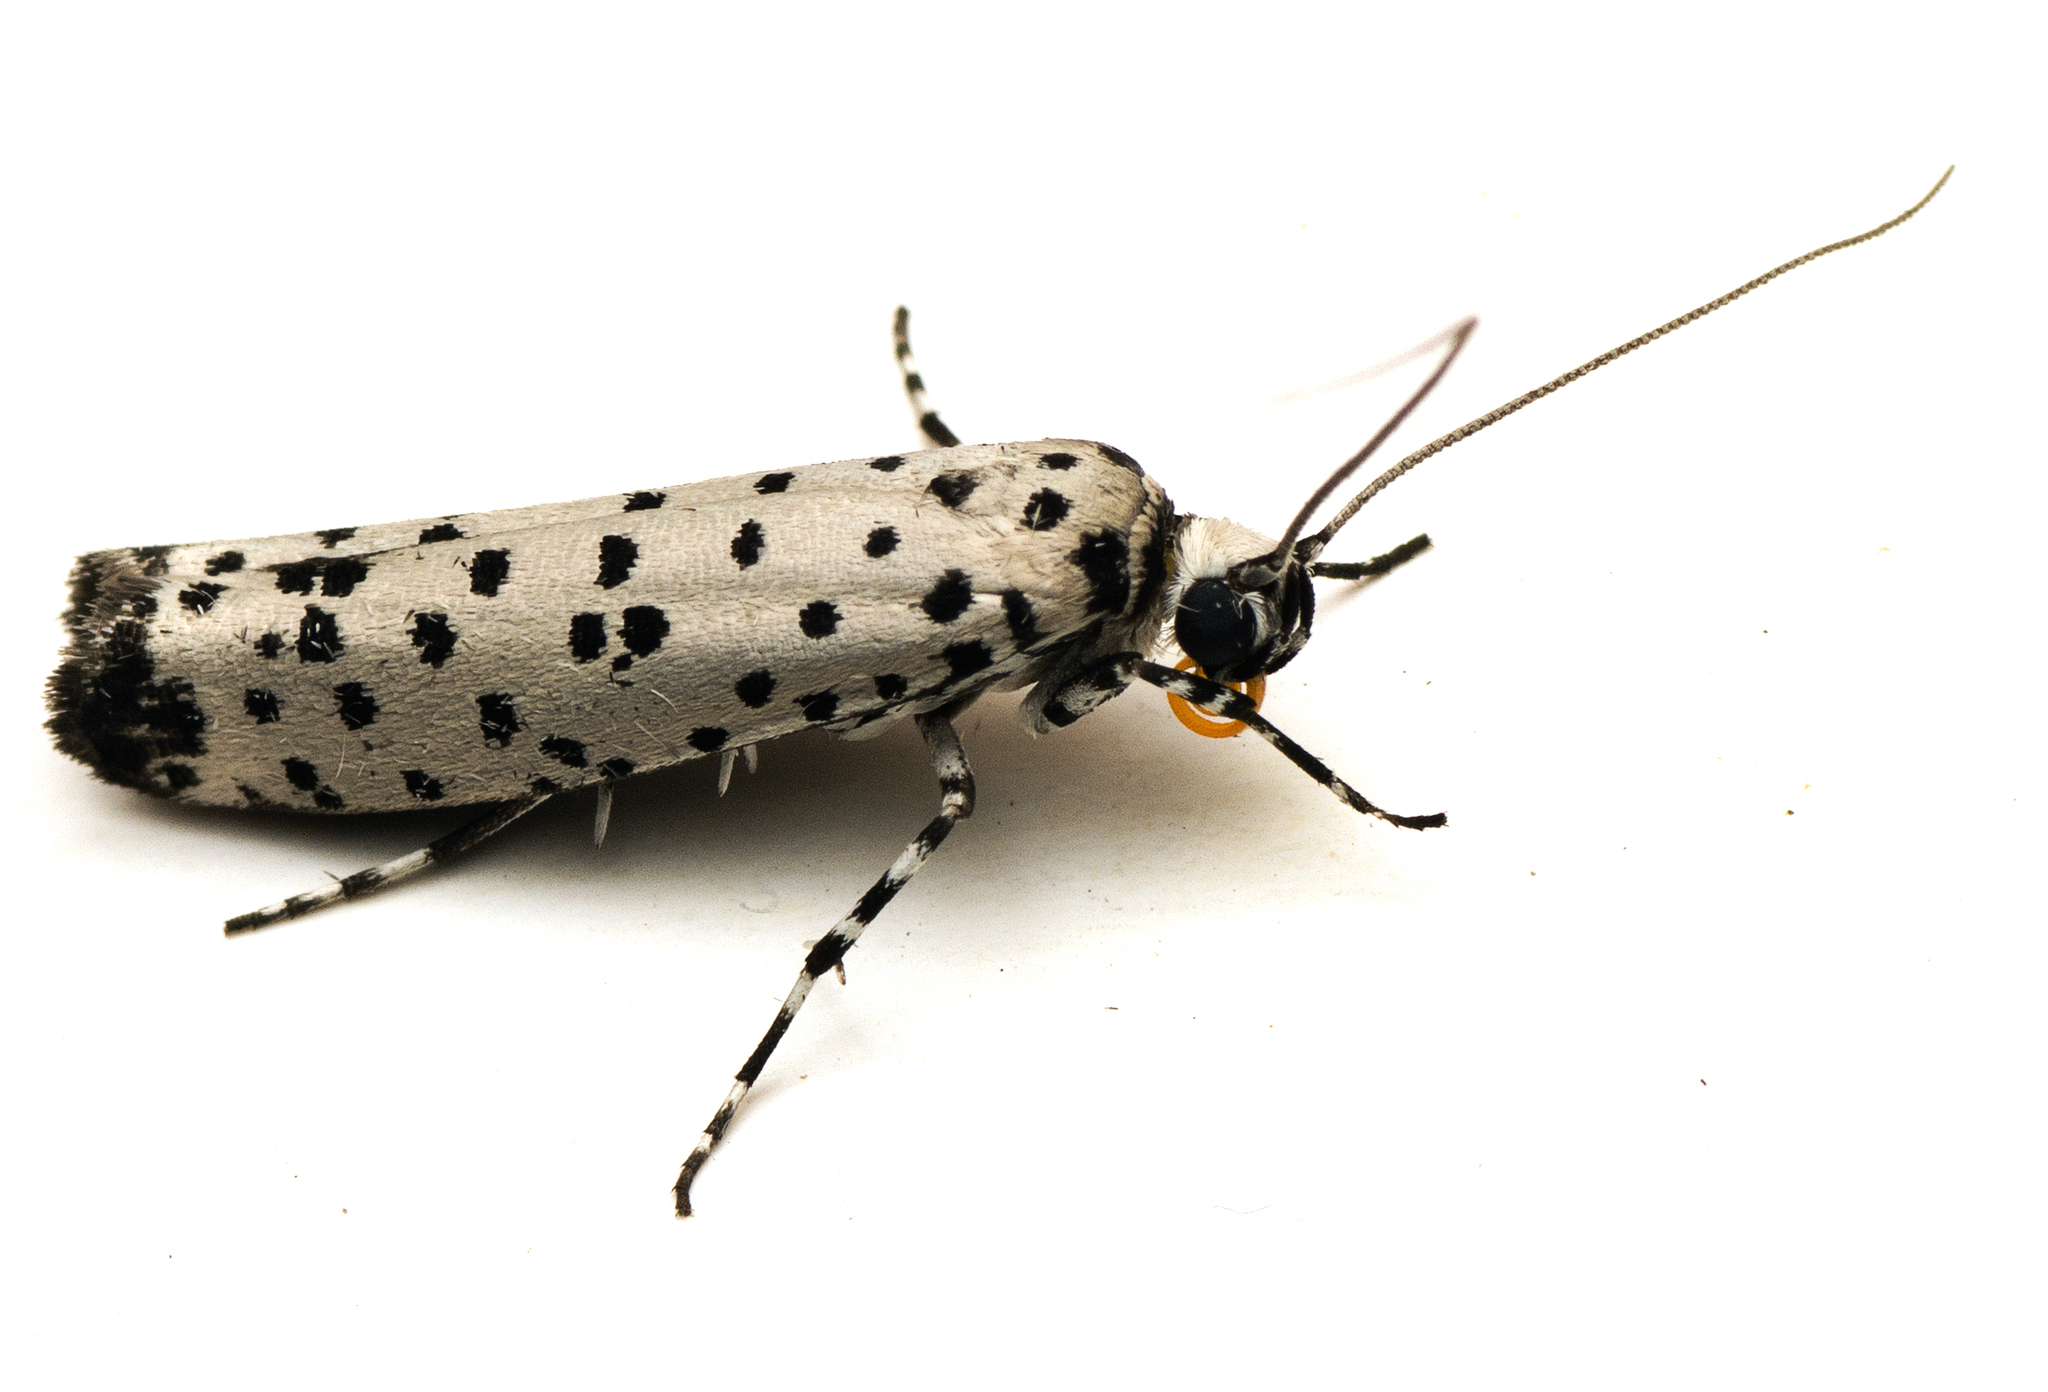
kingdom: Animalia
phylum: Arthropoda
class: Insecta
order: Lepidoptera
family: Yponomeutidae
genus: Yponomeuta
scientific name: Yponomeuta internellus
